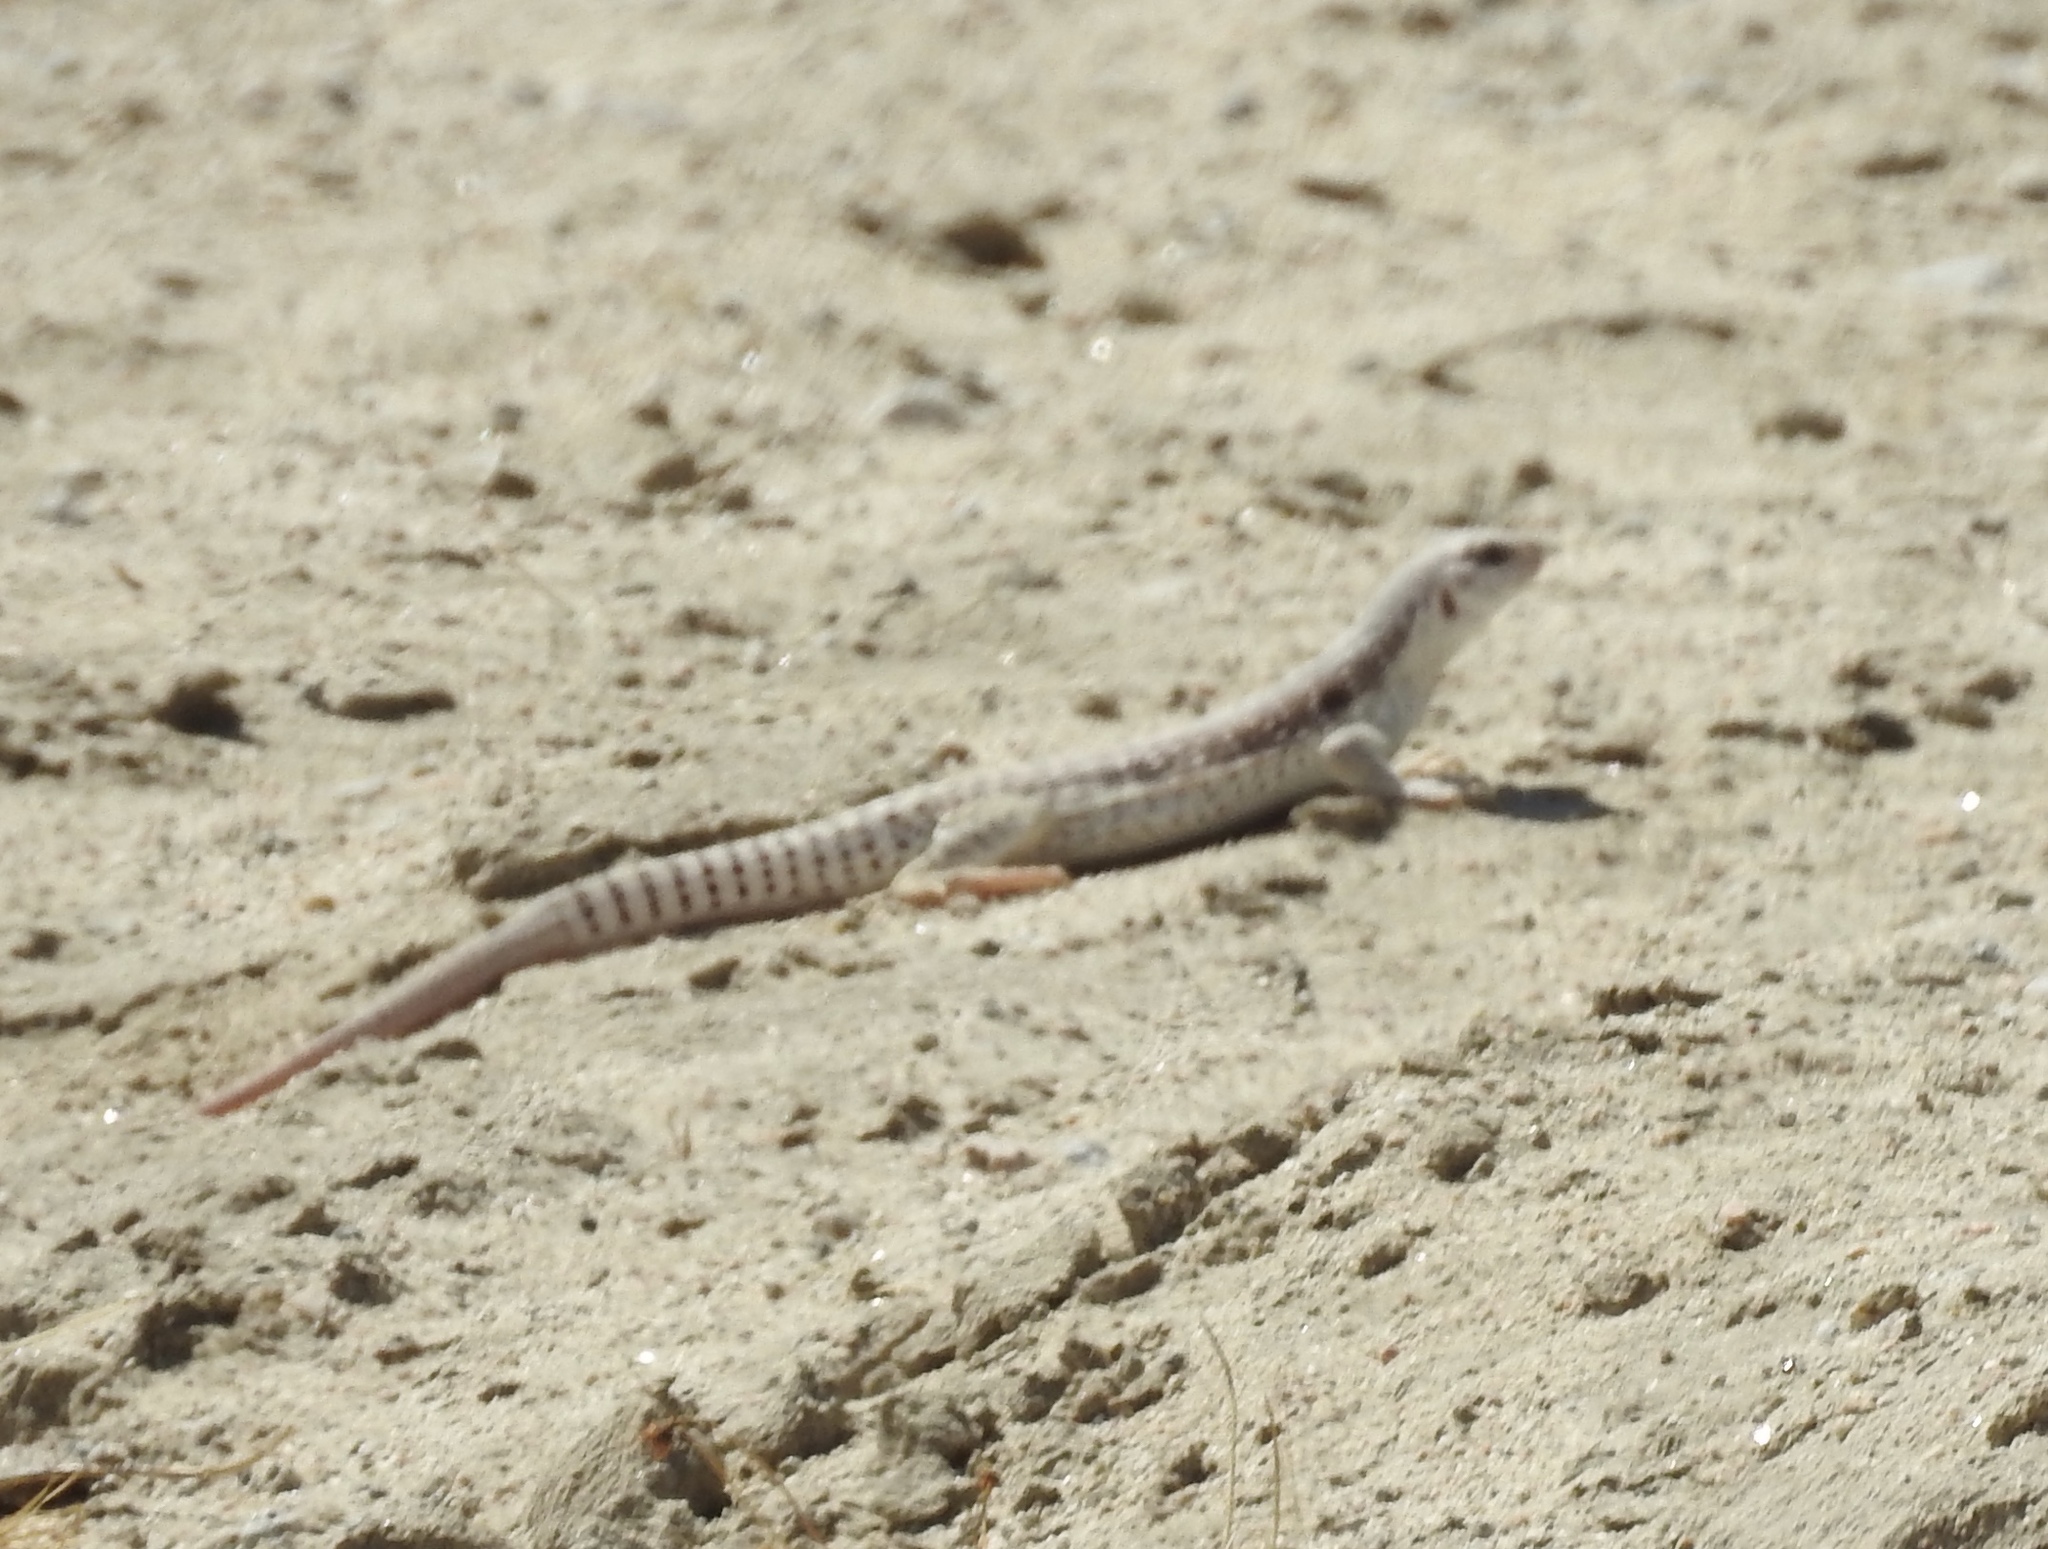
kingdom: Animalia
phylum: Chordata
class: Squamata
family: Iguanidae
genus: Dipsosaurus
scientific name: Dipsosaurus dorsalis
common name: Desert iguana
